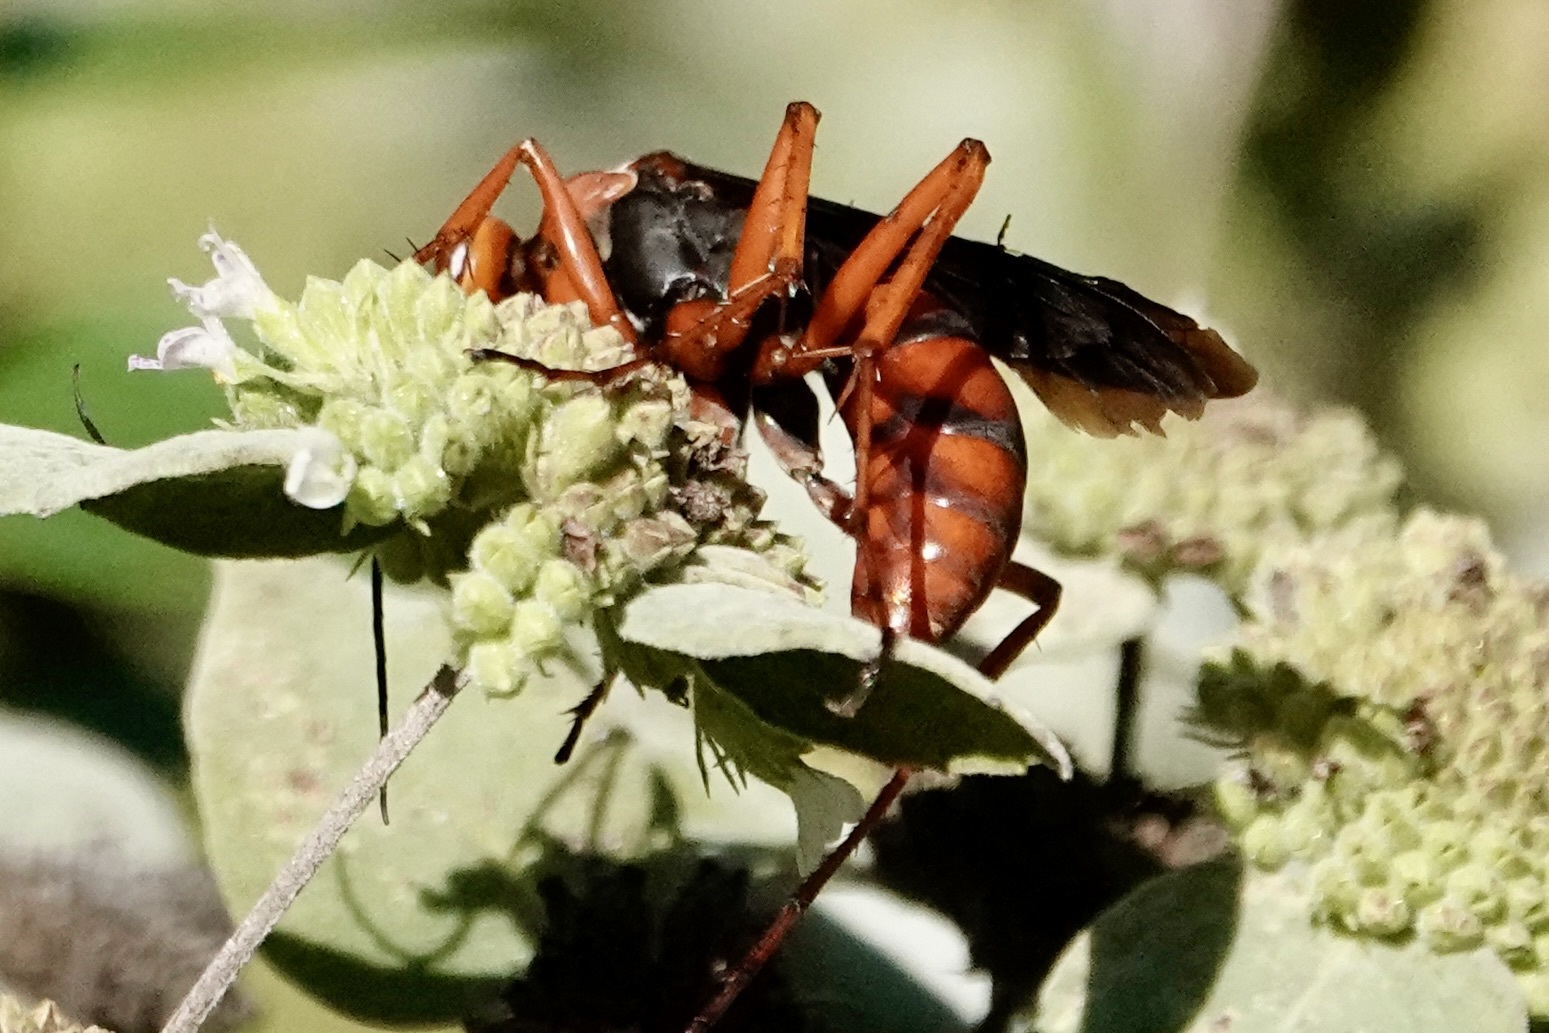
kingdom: Animalia
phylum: Arthropoda
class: Insecta
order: Hymenoptera
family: Pompilidae
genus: Tachypompilus
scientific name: Tachypompilus ferrugineus
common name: Rusty spider wasp
